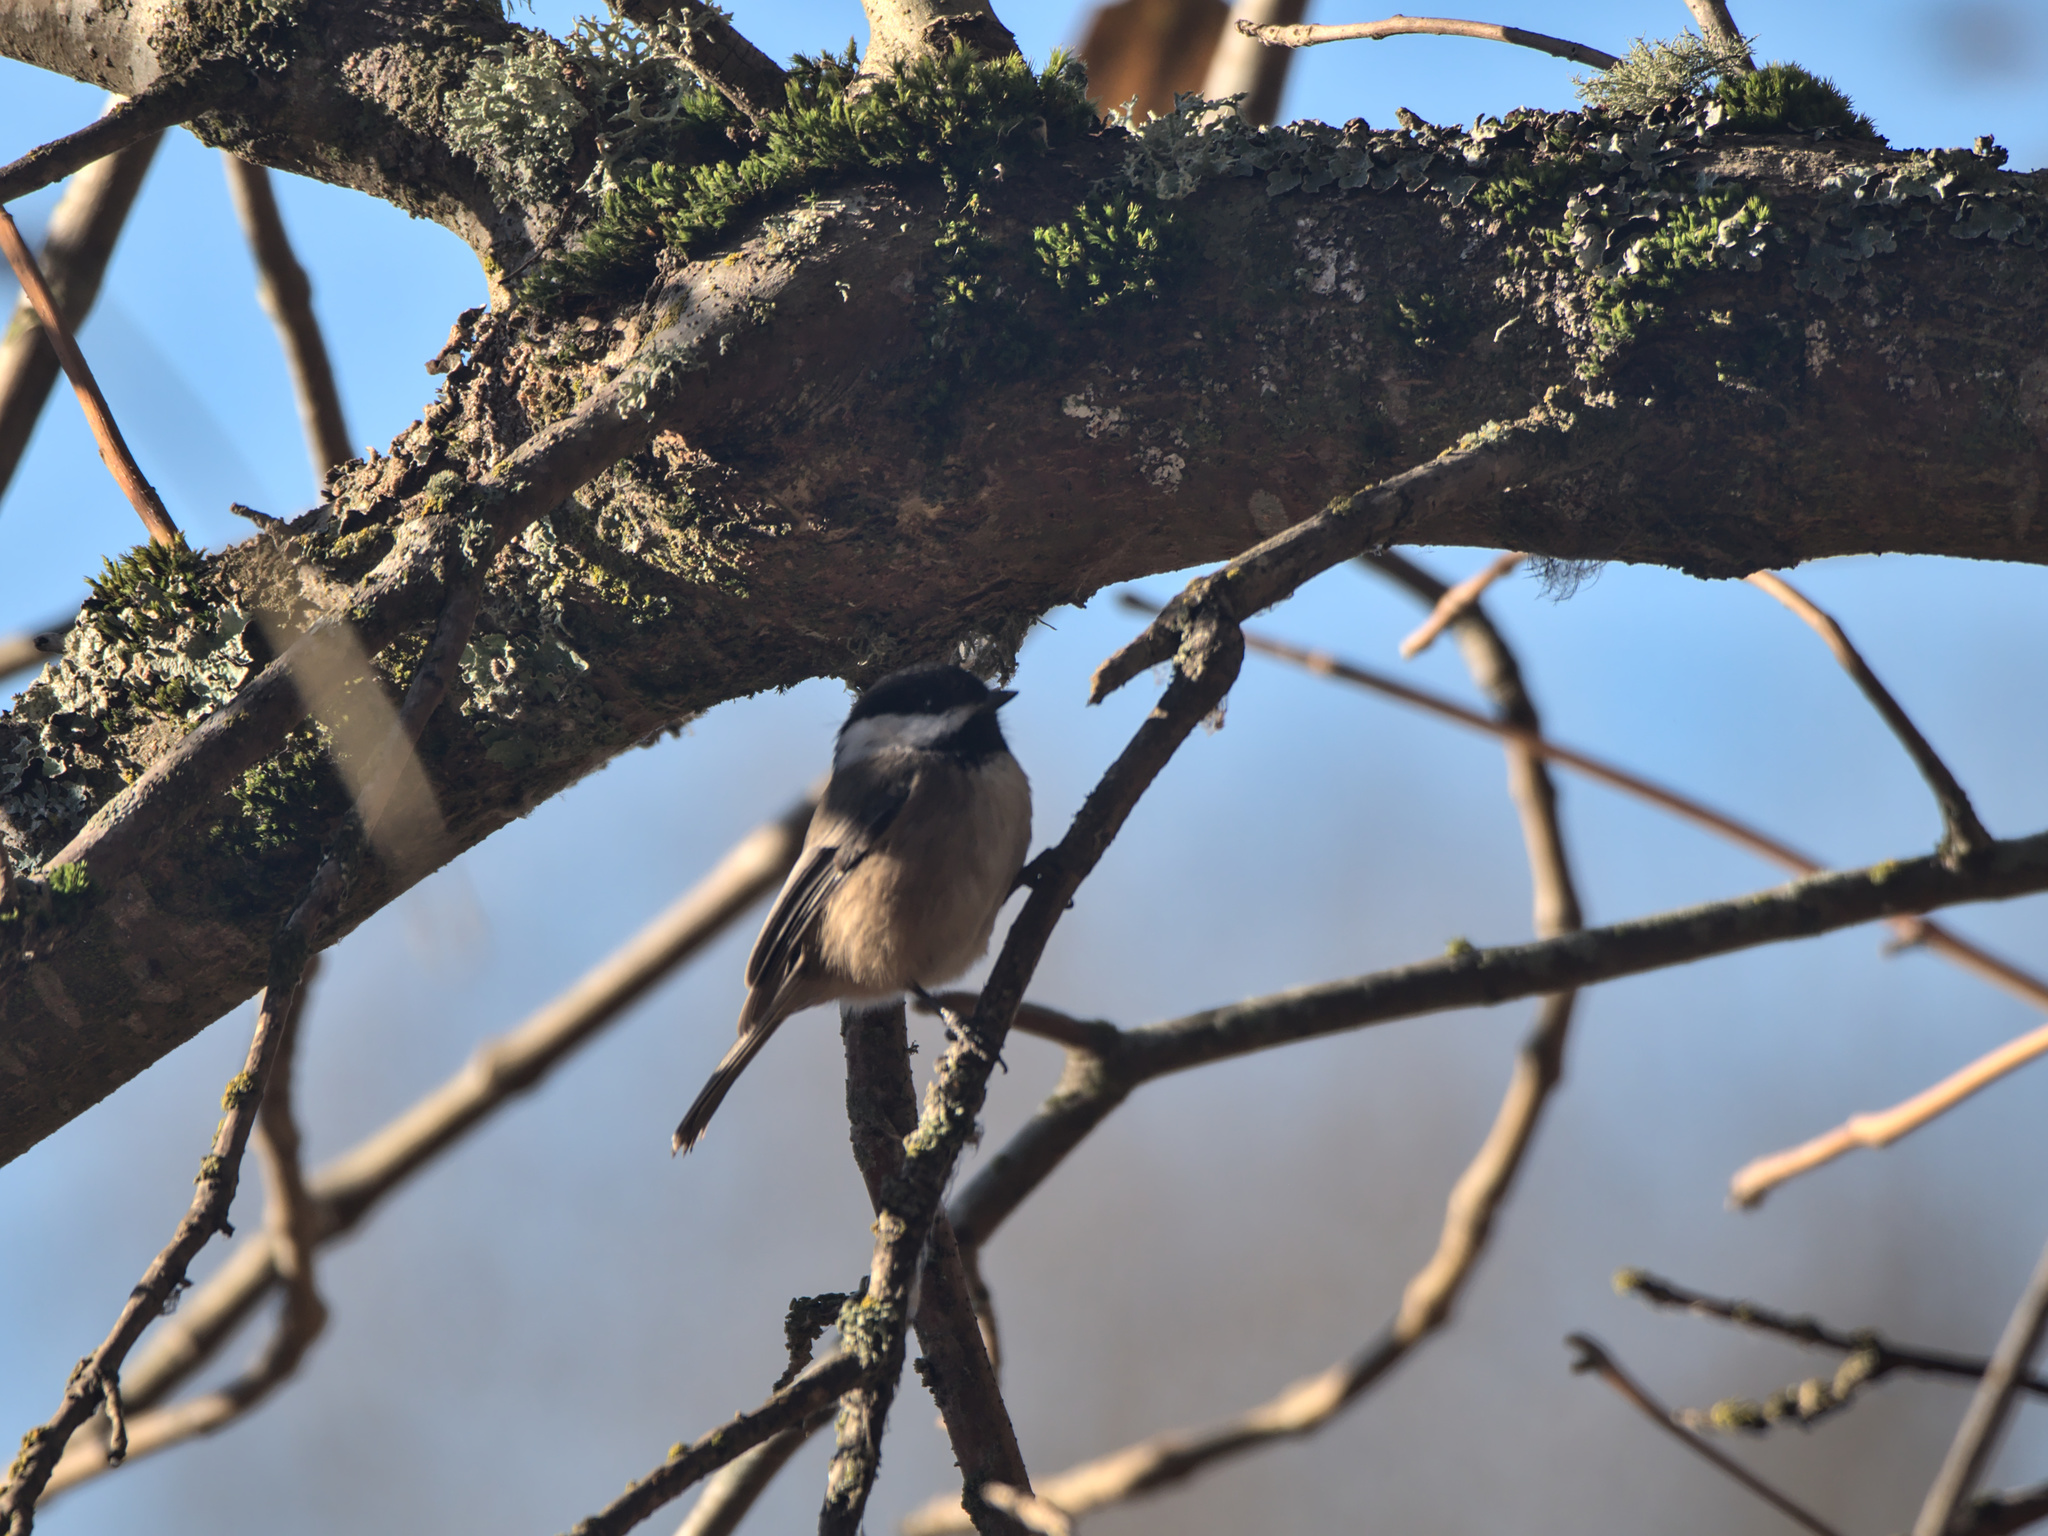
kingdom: Animalia
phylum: Chordata
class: Aves
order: Passeriformes
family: Paridae
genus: Poecile
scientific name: Poecile atricapillus
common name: Black-capped chickadee
